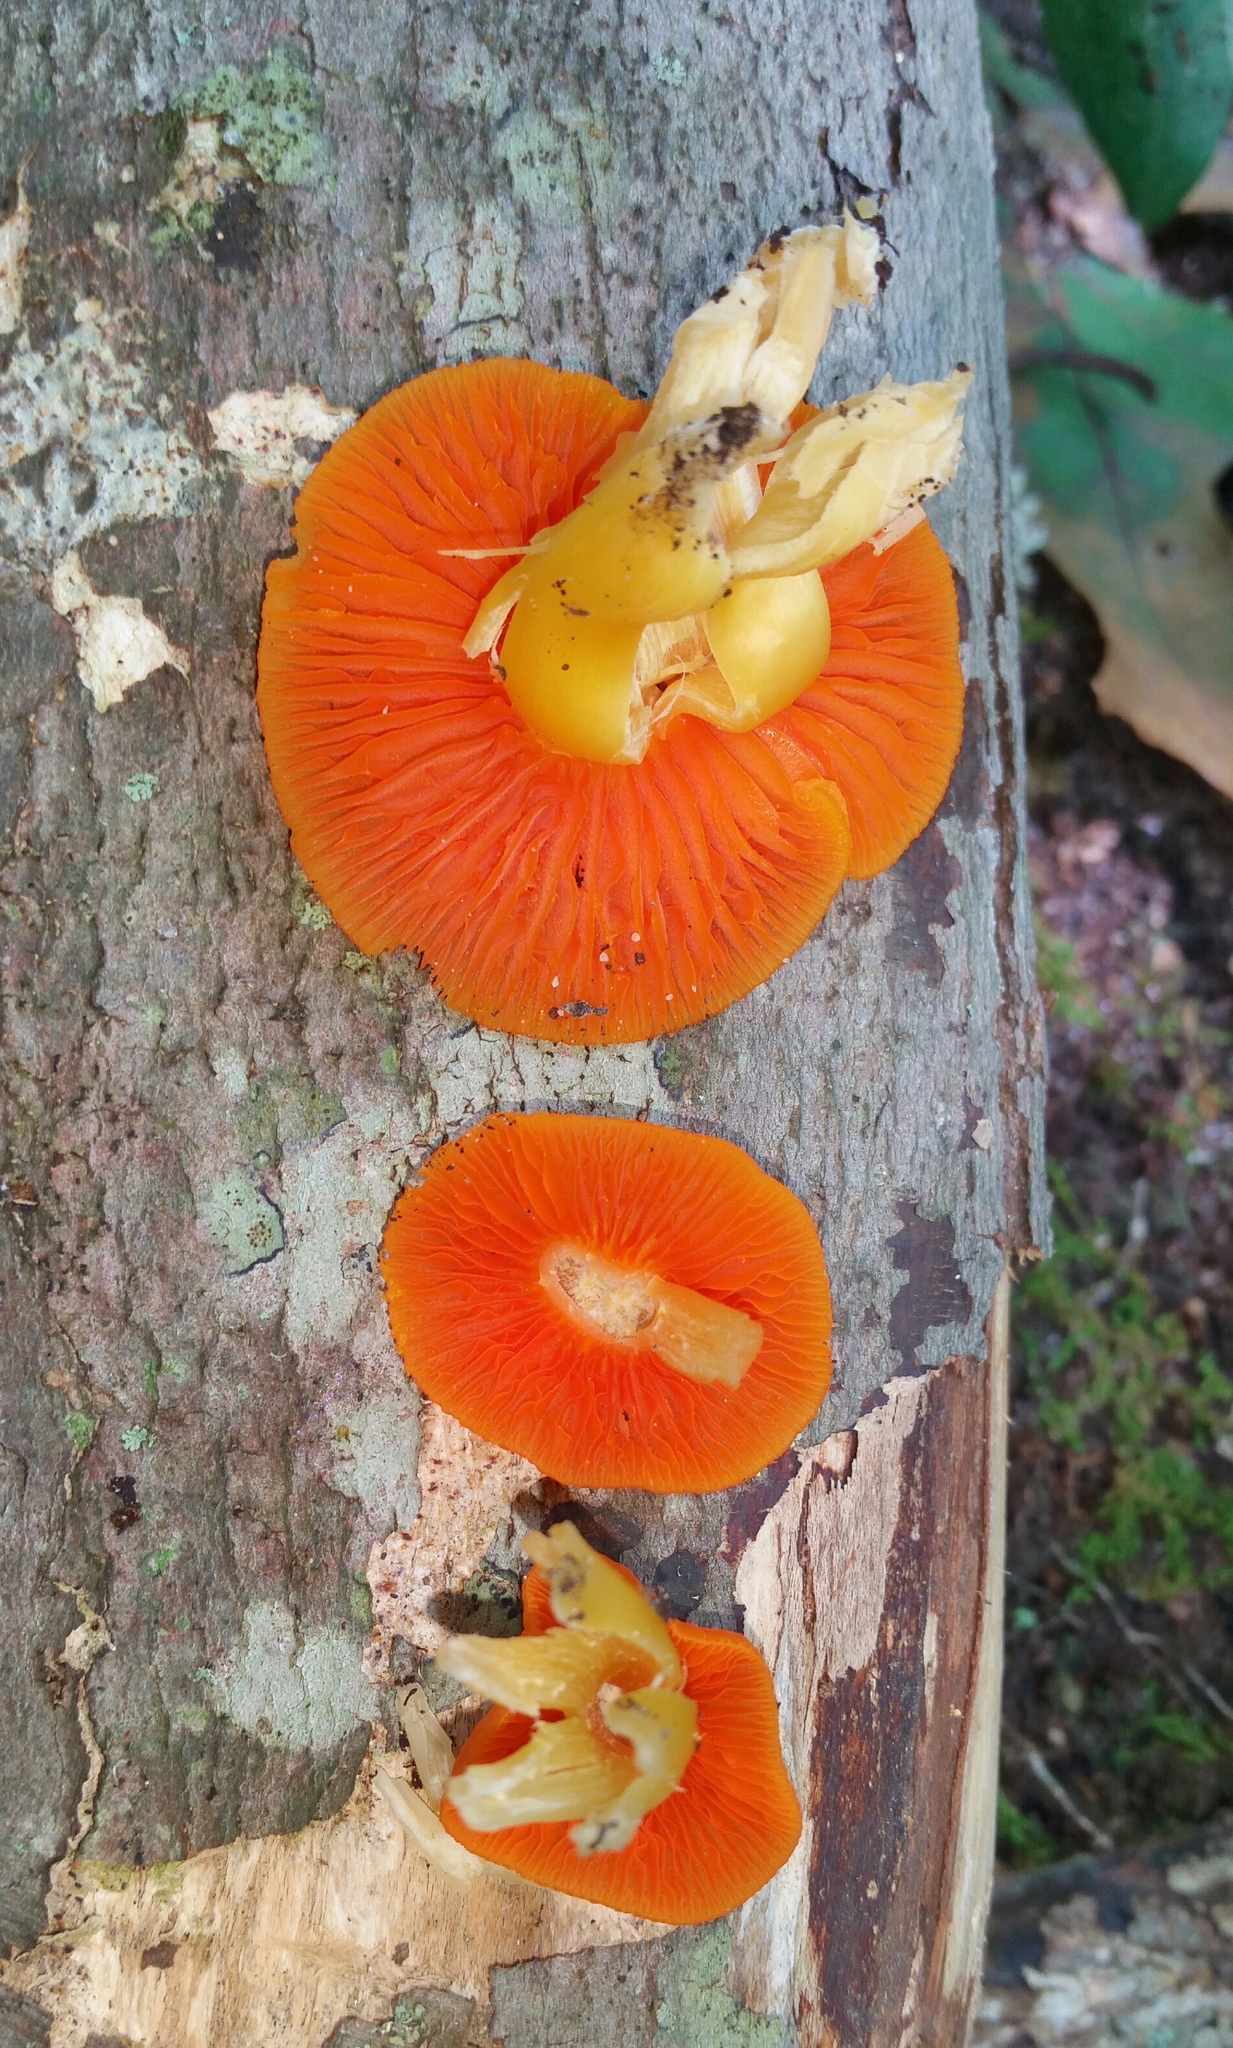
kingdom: Fungi
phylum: Basidiomycota
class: Agaricomycetes
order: Agaricales
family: Hygrophoraceae
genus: Humidicutis
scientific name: Humidicutis marginata
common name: Orange gilled waxcap
